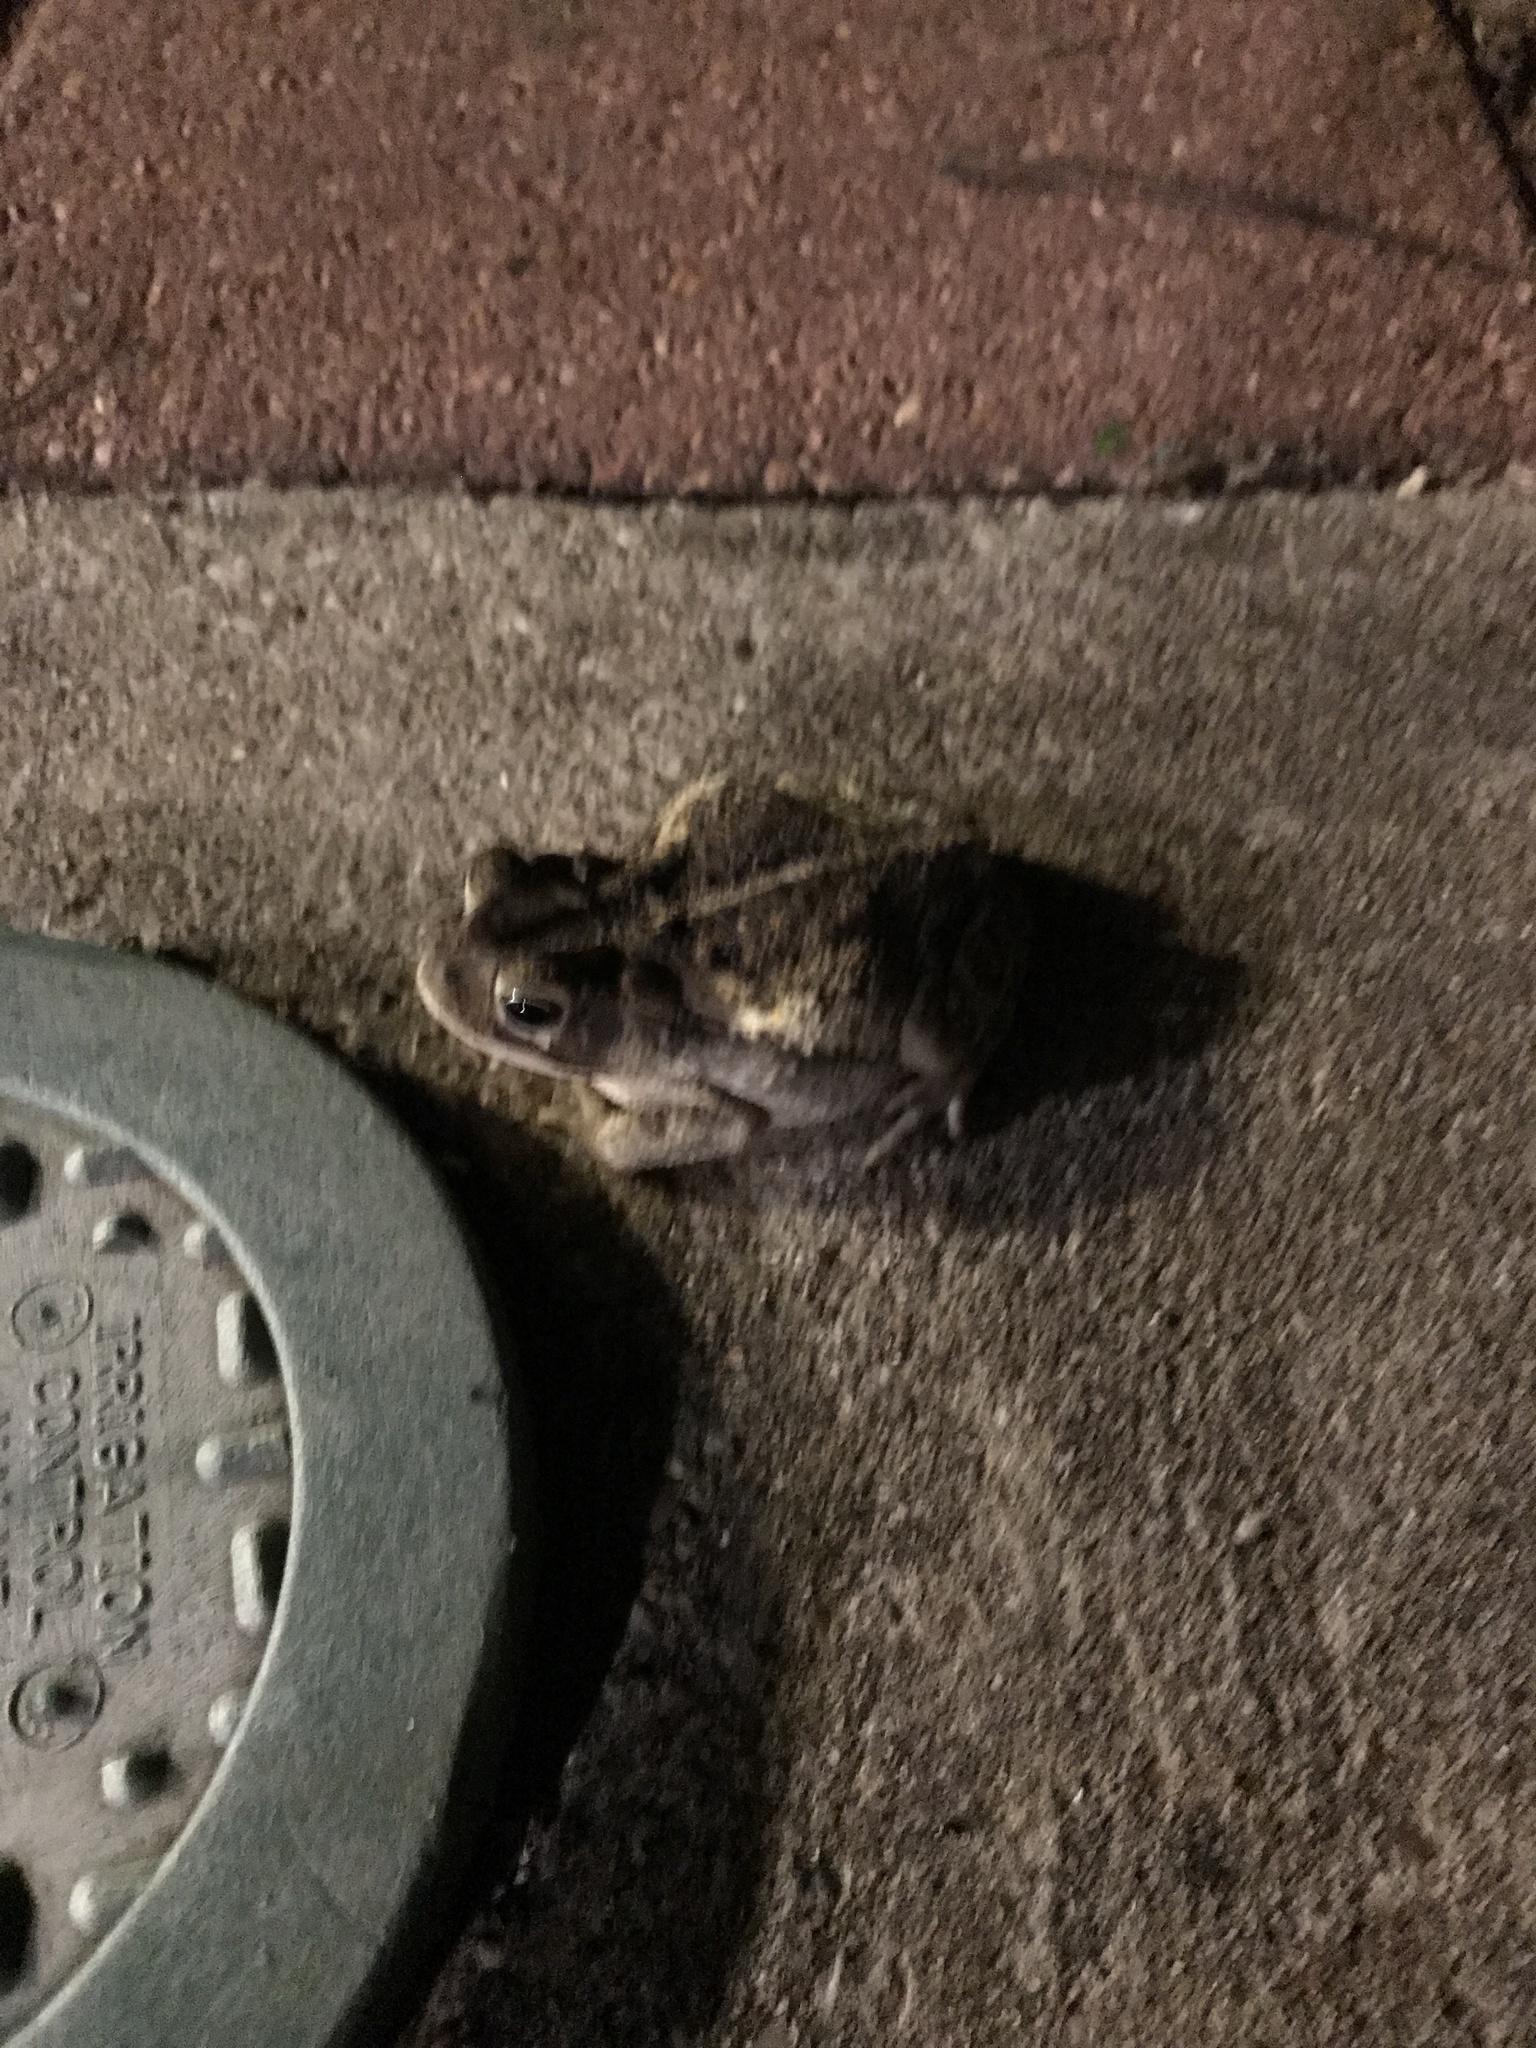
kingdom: Animalia
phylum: Chordata
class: Amphibia
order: Anura
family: Bufonidae
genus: Incilius
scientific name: Incilius nebulifer
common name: Gulf coast toad
